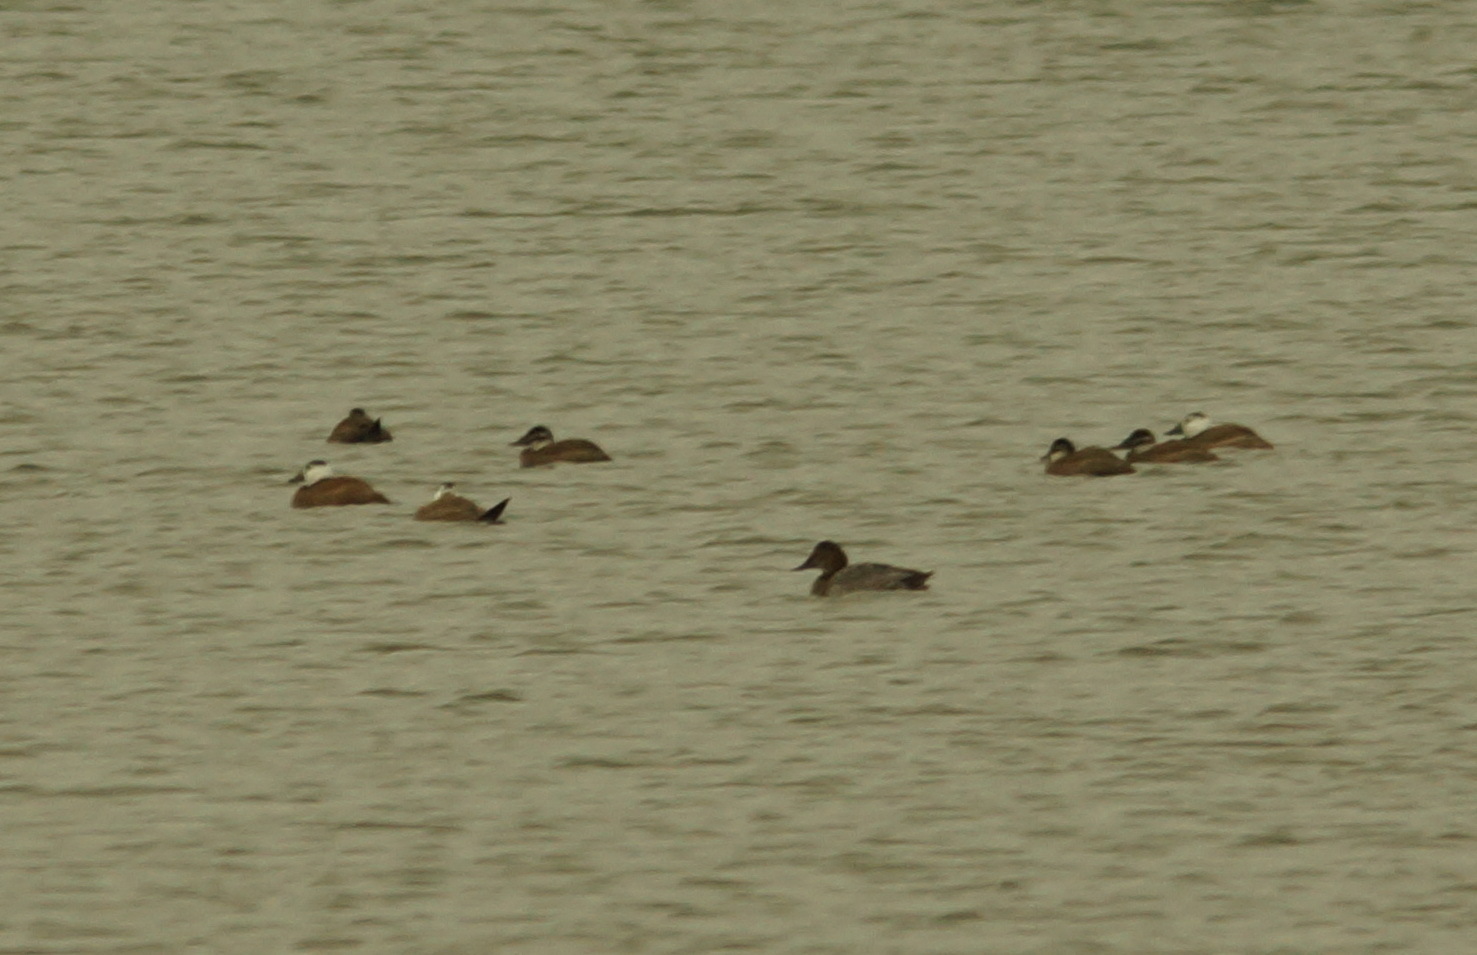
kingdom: Animalia
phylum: Chordata
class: Aves
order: Anseriformes
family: Anatidae
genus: Oxyura
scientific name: Oxyura leucocephala
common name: White-headed duck
